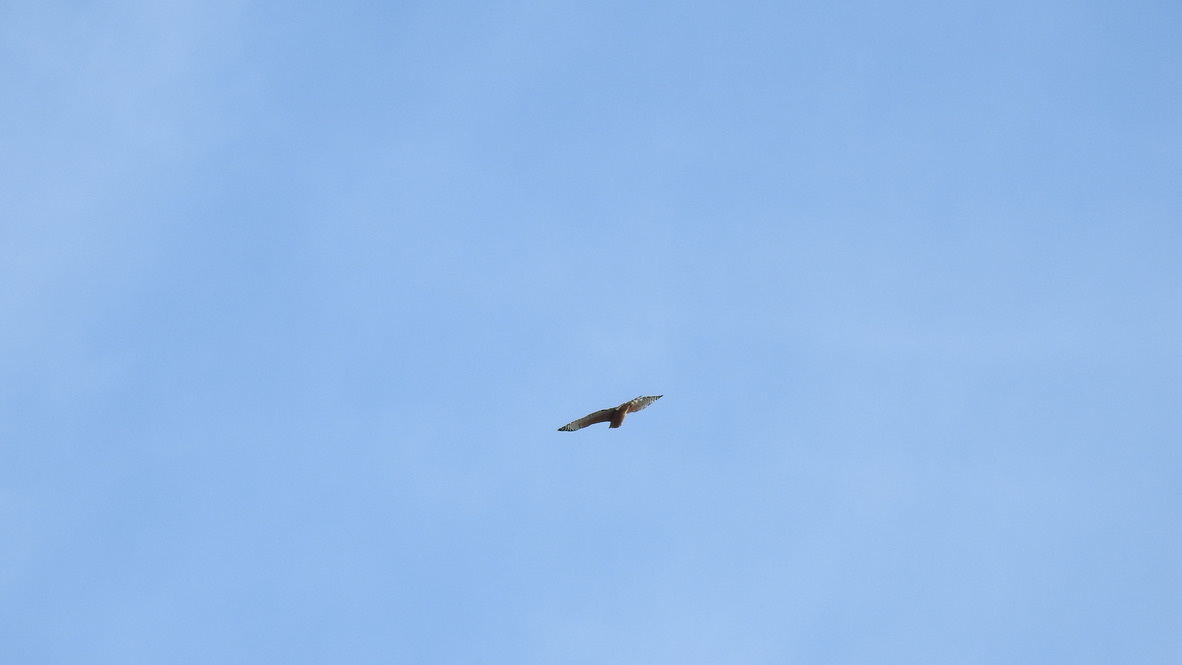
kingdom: Animalia
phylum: Chordata
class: Aves
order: Accipitriformes
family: Accipitridae
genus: Buteo
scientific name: Buteo lineatus
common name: Red-shouldered hawk
